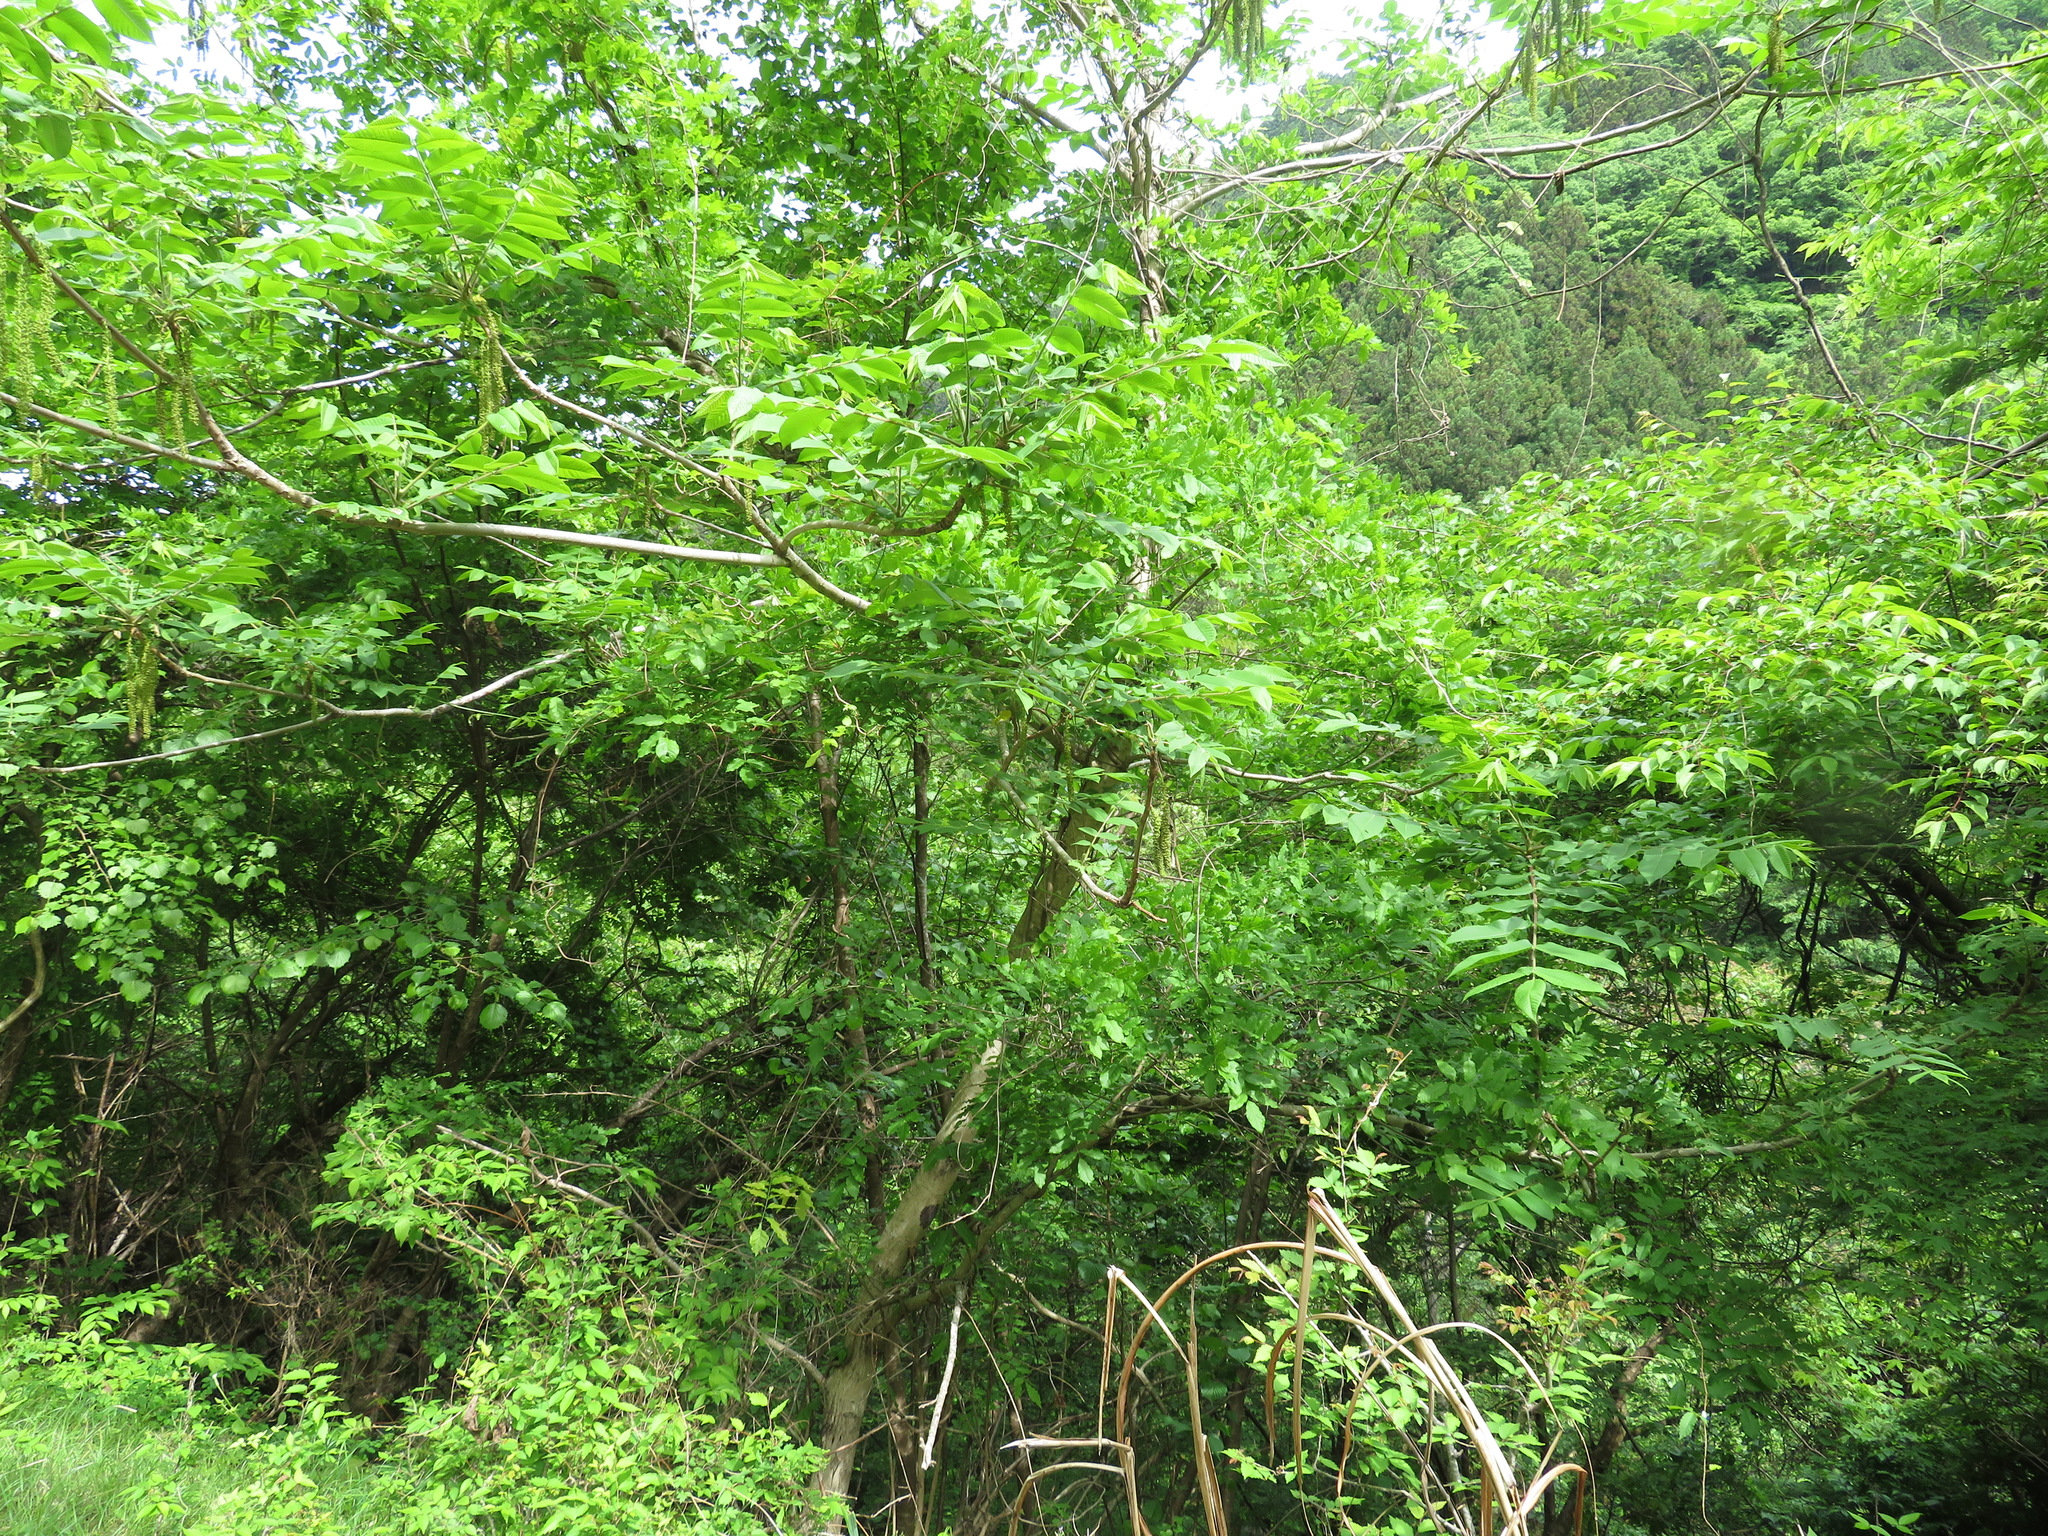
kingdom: Plantae
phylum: Tracheophyta
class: Magnoliopsida
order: Fagales
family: Juglandaceae
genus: Juglans
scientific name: Juglans ailantifolia
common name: Japanese walnut
